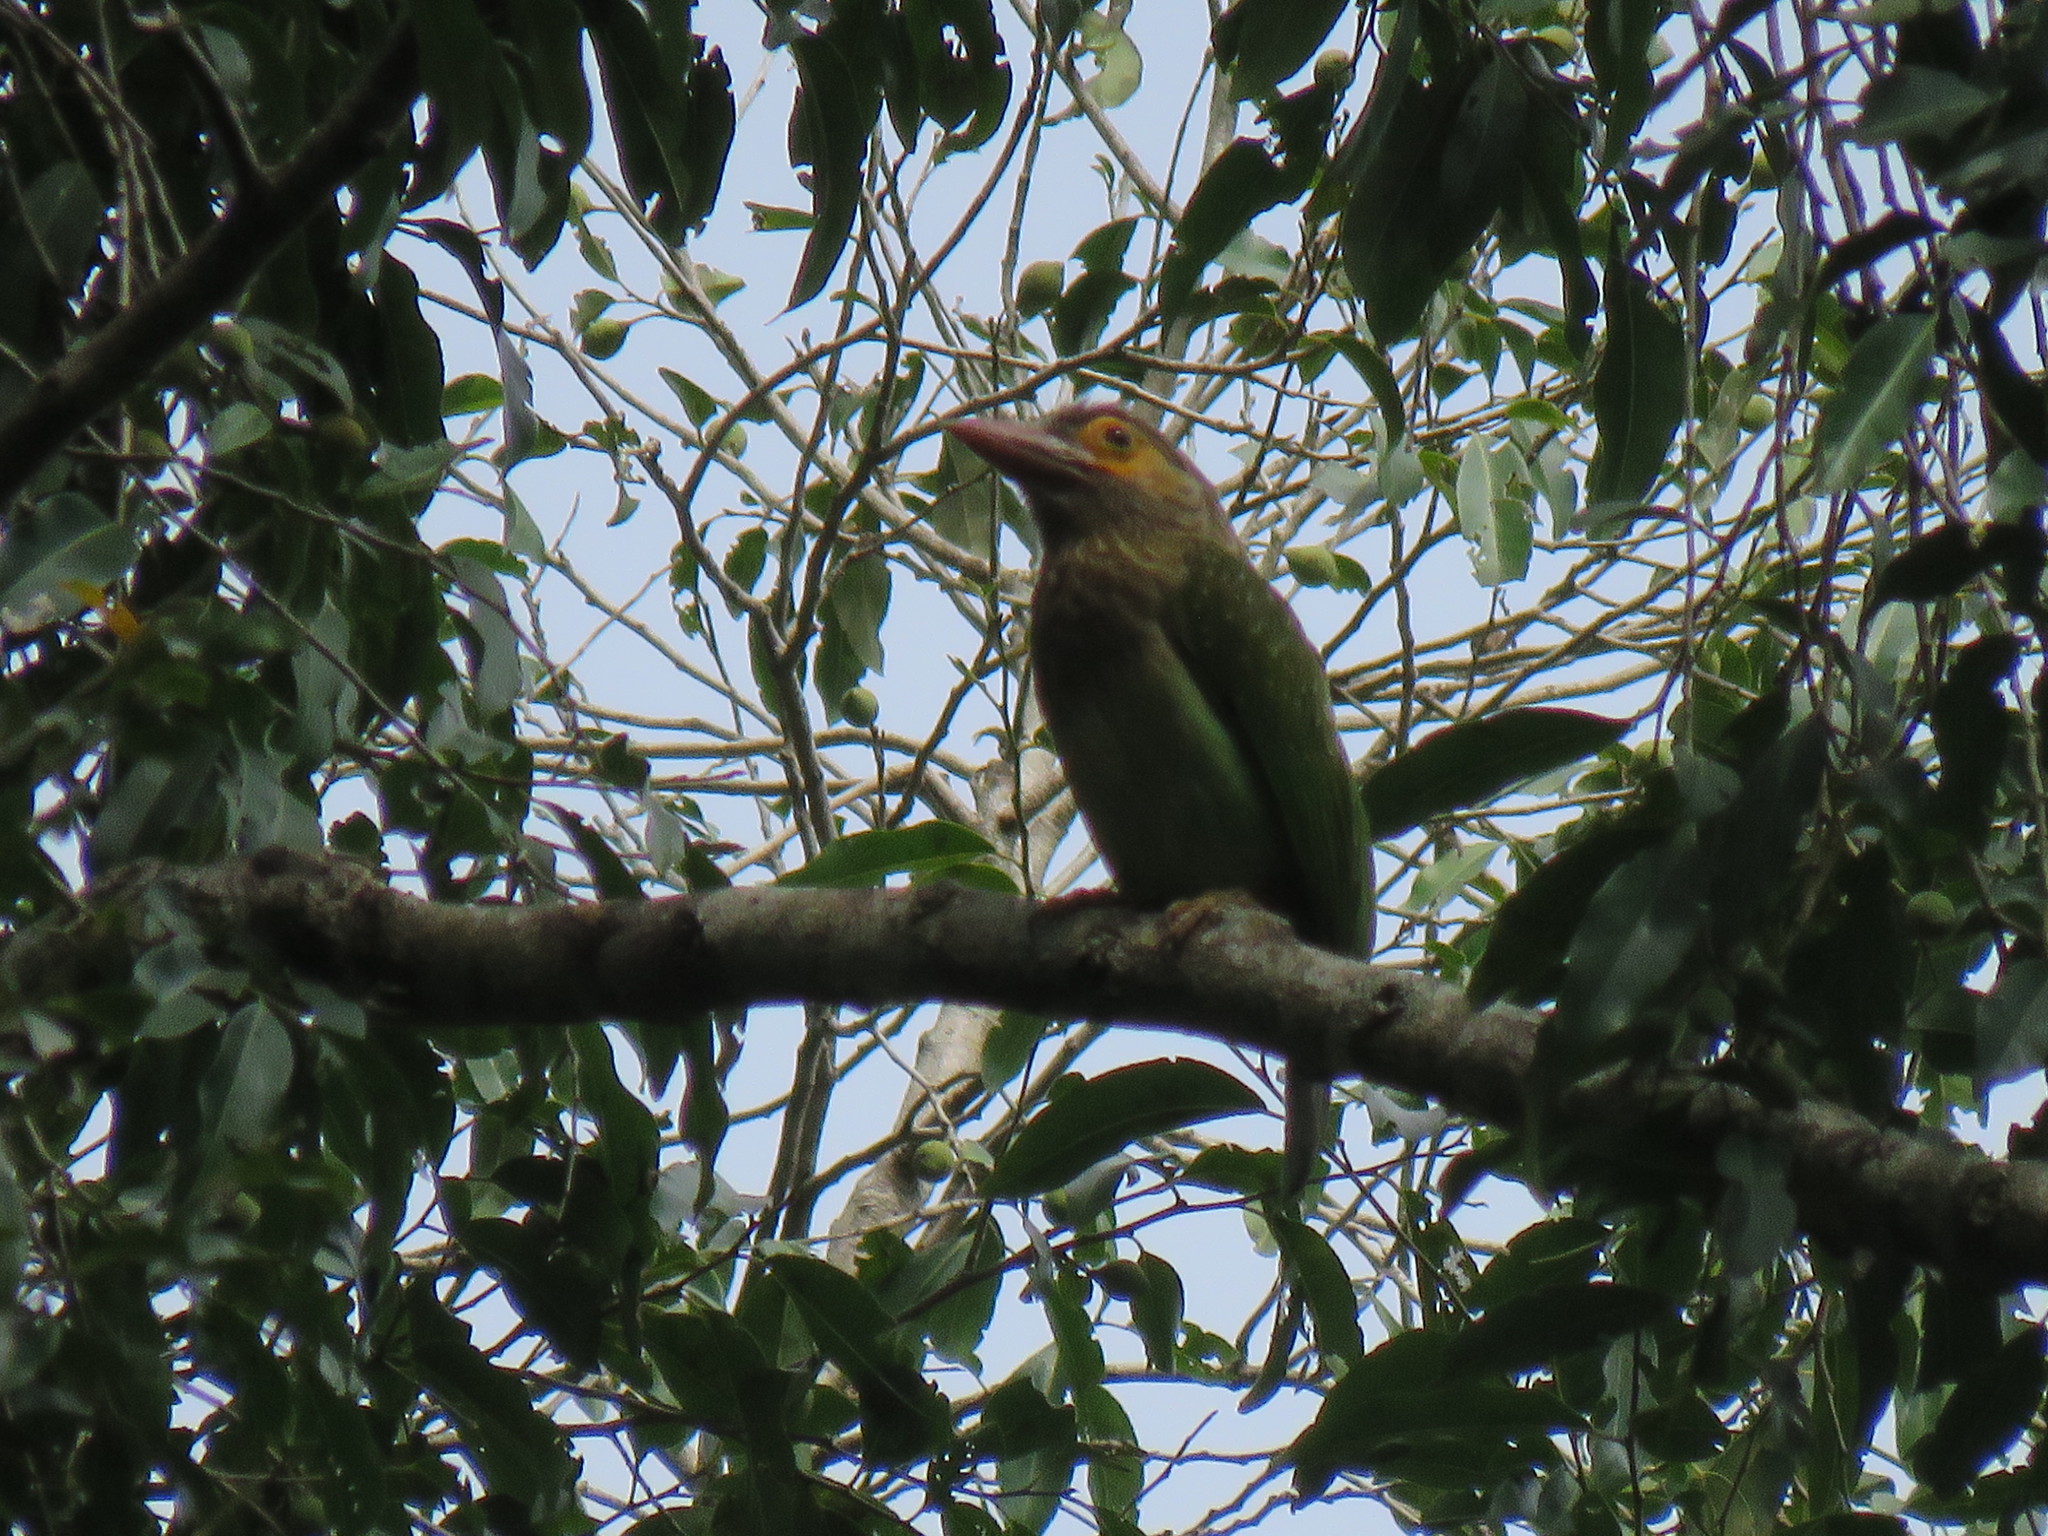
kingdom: Animalia
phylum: Chordata
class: Aves
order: Piciformes
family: Megalaimidae
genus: Psilopogon
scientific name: Psilopogon zeylanicus
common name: Brown-headed barbet
